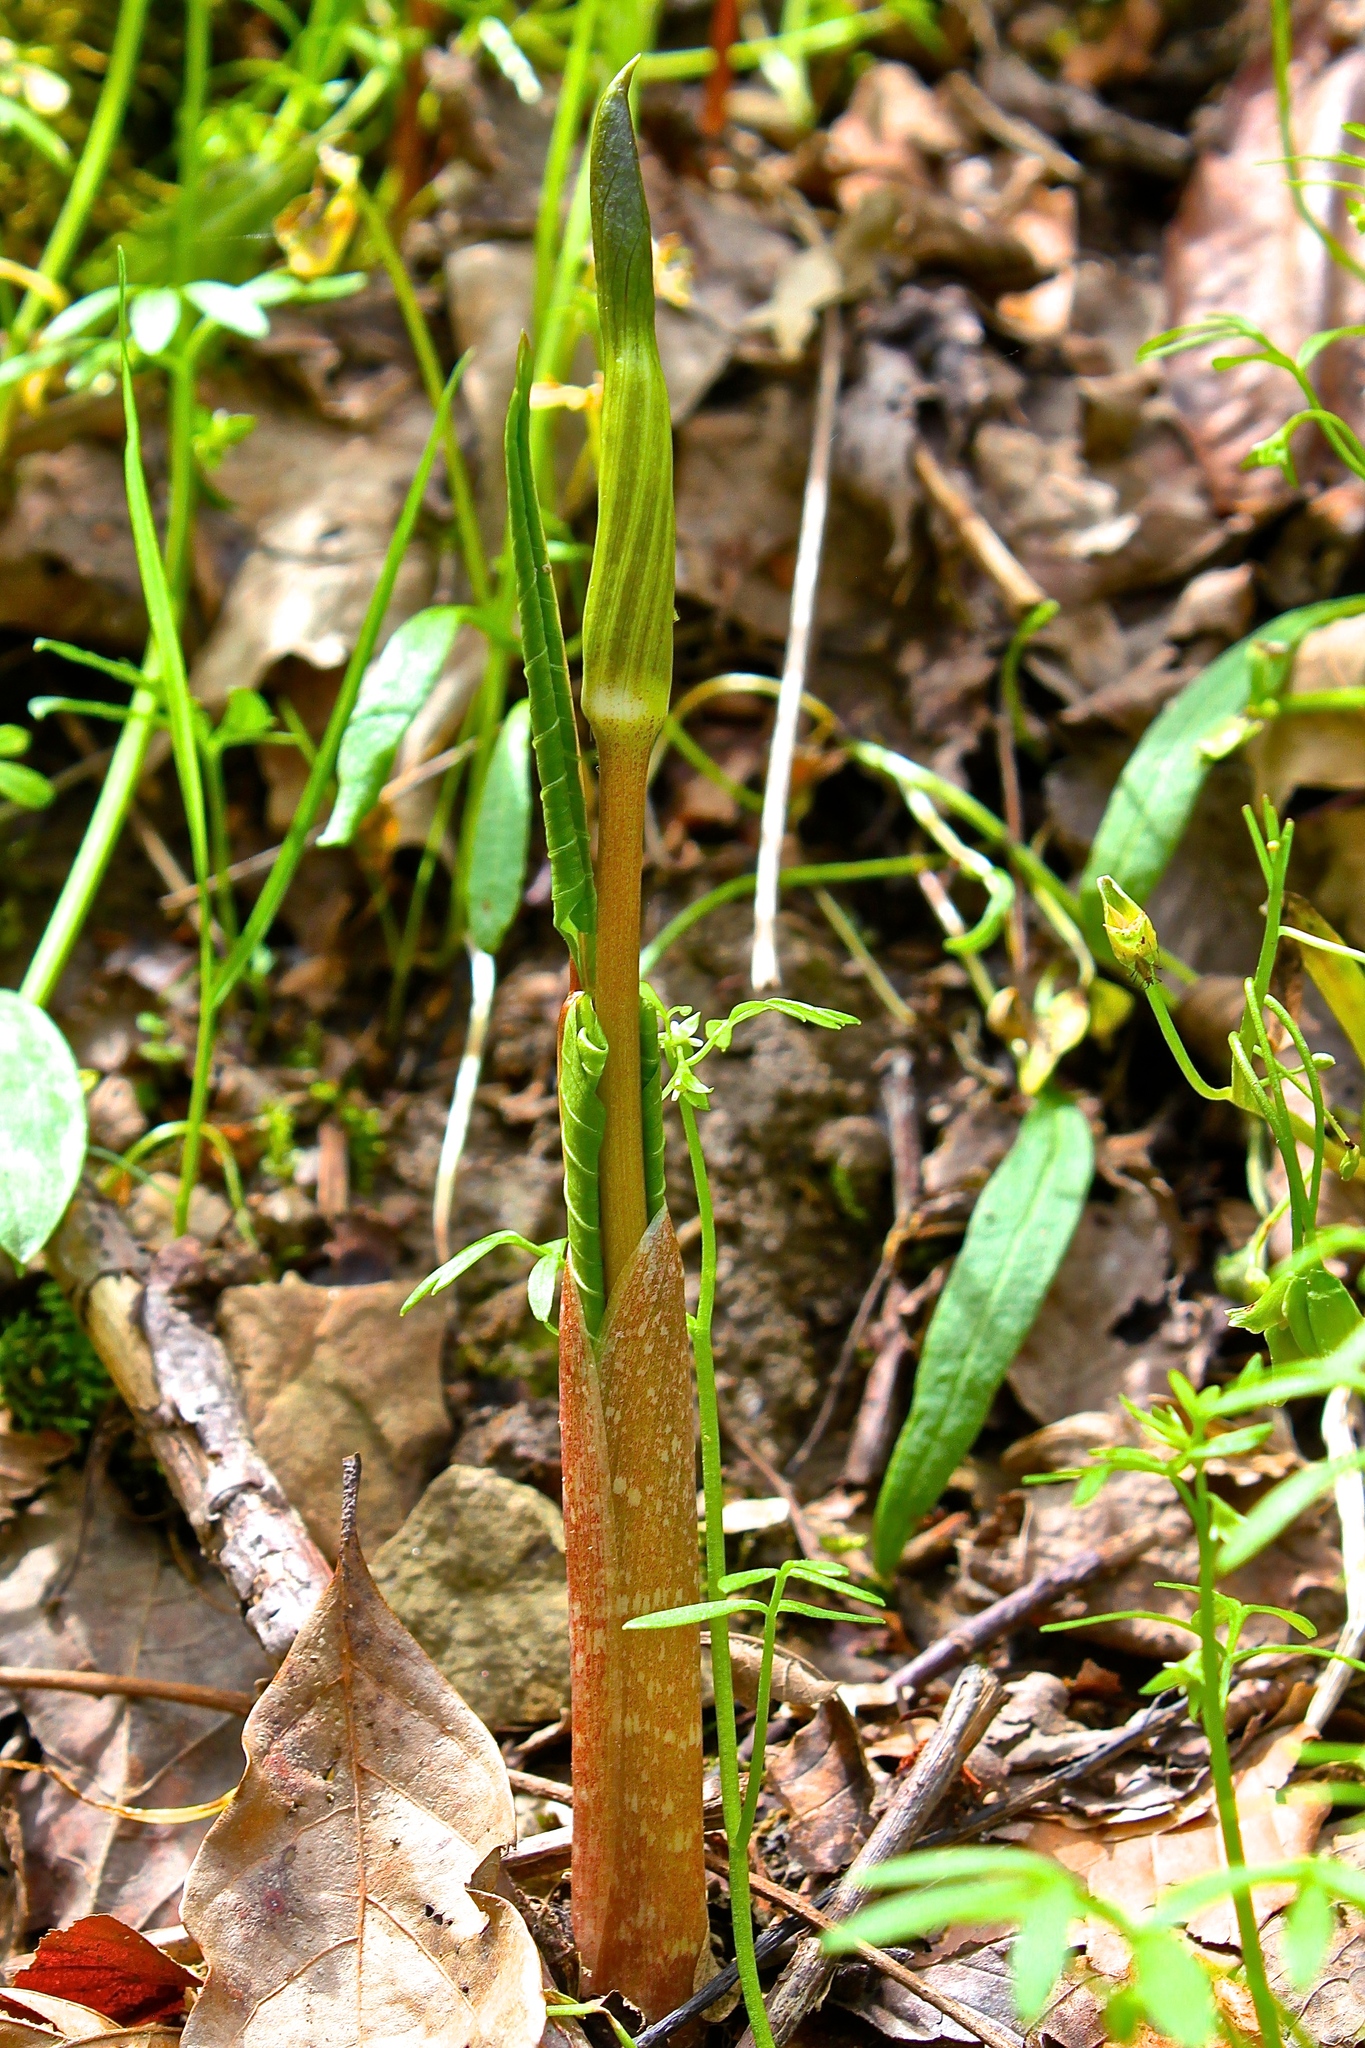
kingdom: Plantae
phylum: Tracheophyta
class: Liliopsida
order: Alismatales
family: Araceae
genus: Arisaema
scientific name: Arisaema triphyllum
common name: Jack-in-the-pulpit
